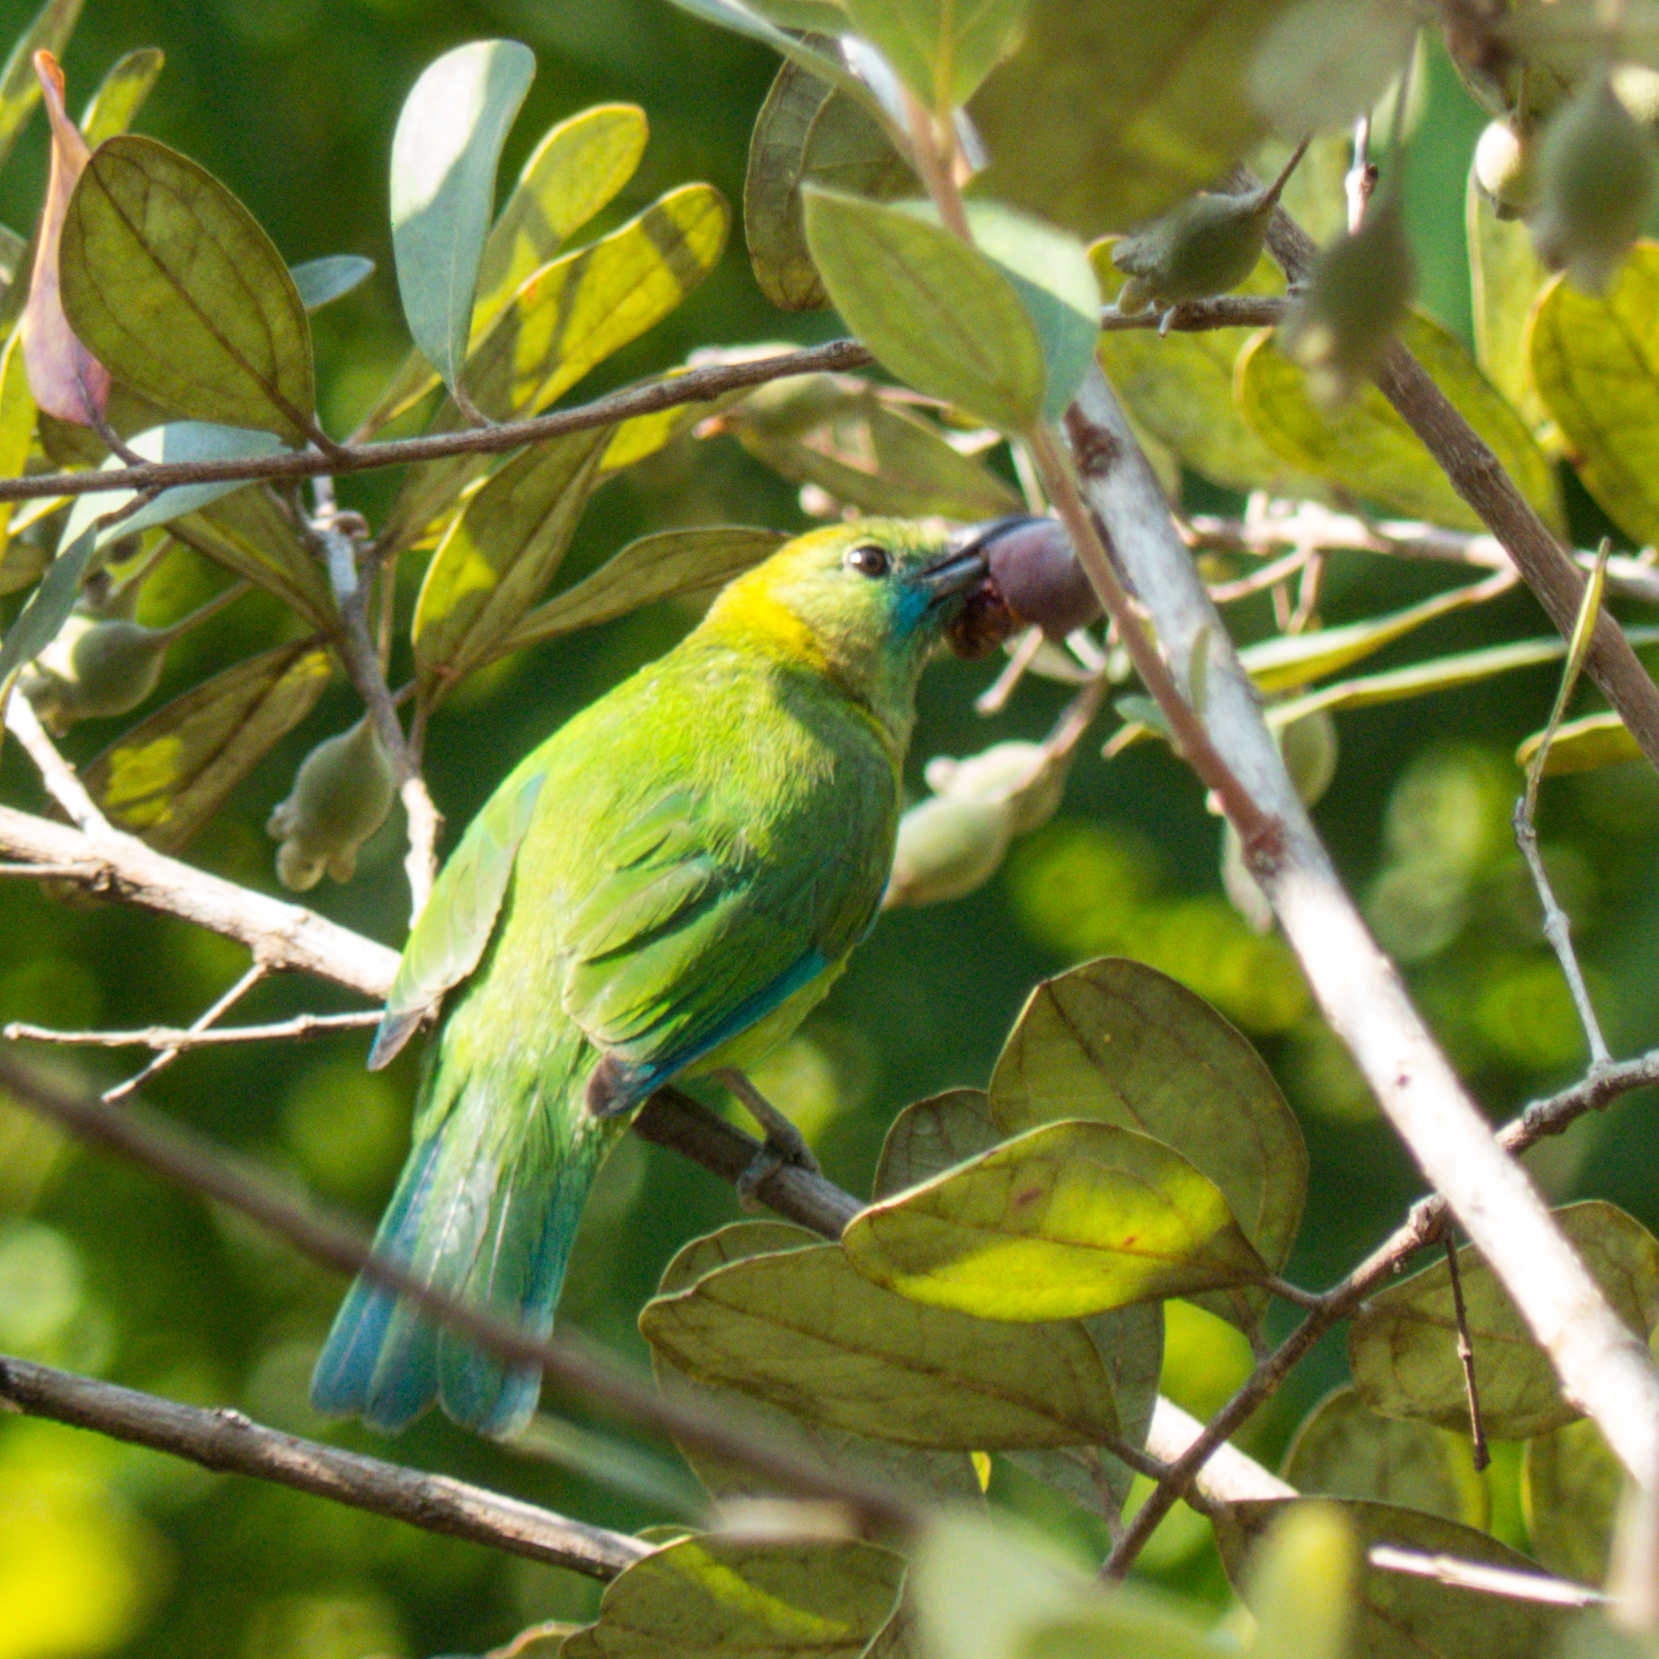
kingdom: Animalia
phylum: Chordata
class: Aves
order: Passeriformes
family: Chloropseidae
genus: Chloropsis
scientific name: Chloropsis moluccensis
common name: Blue-winged leafbird
